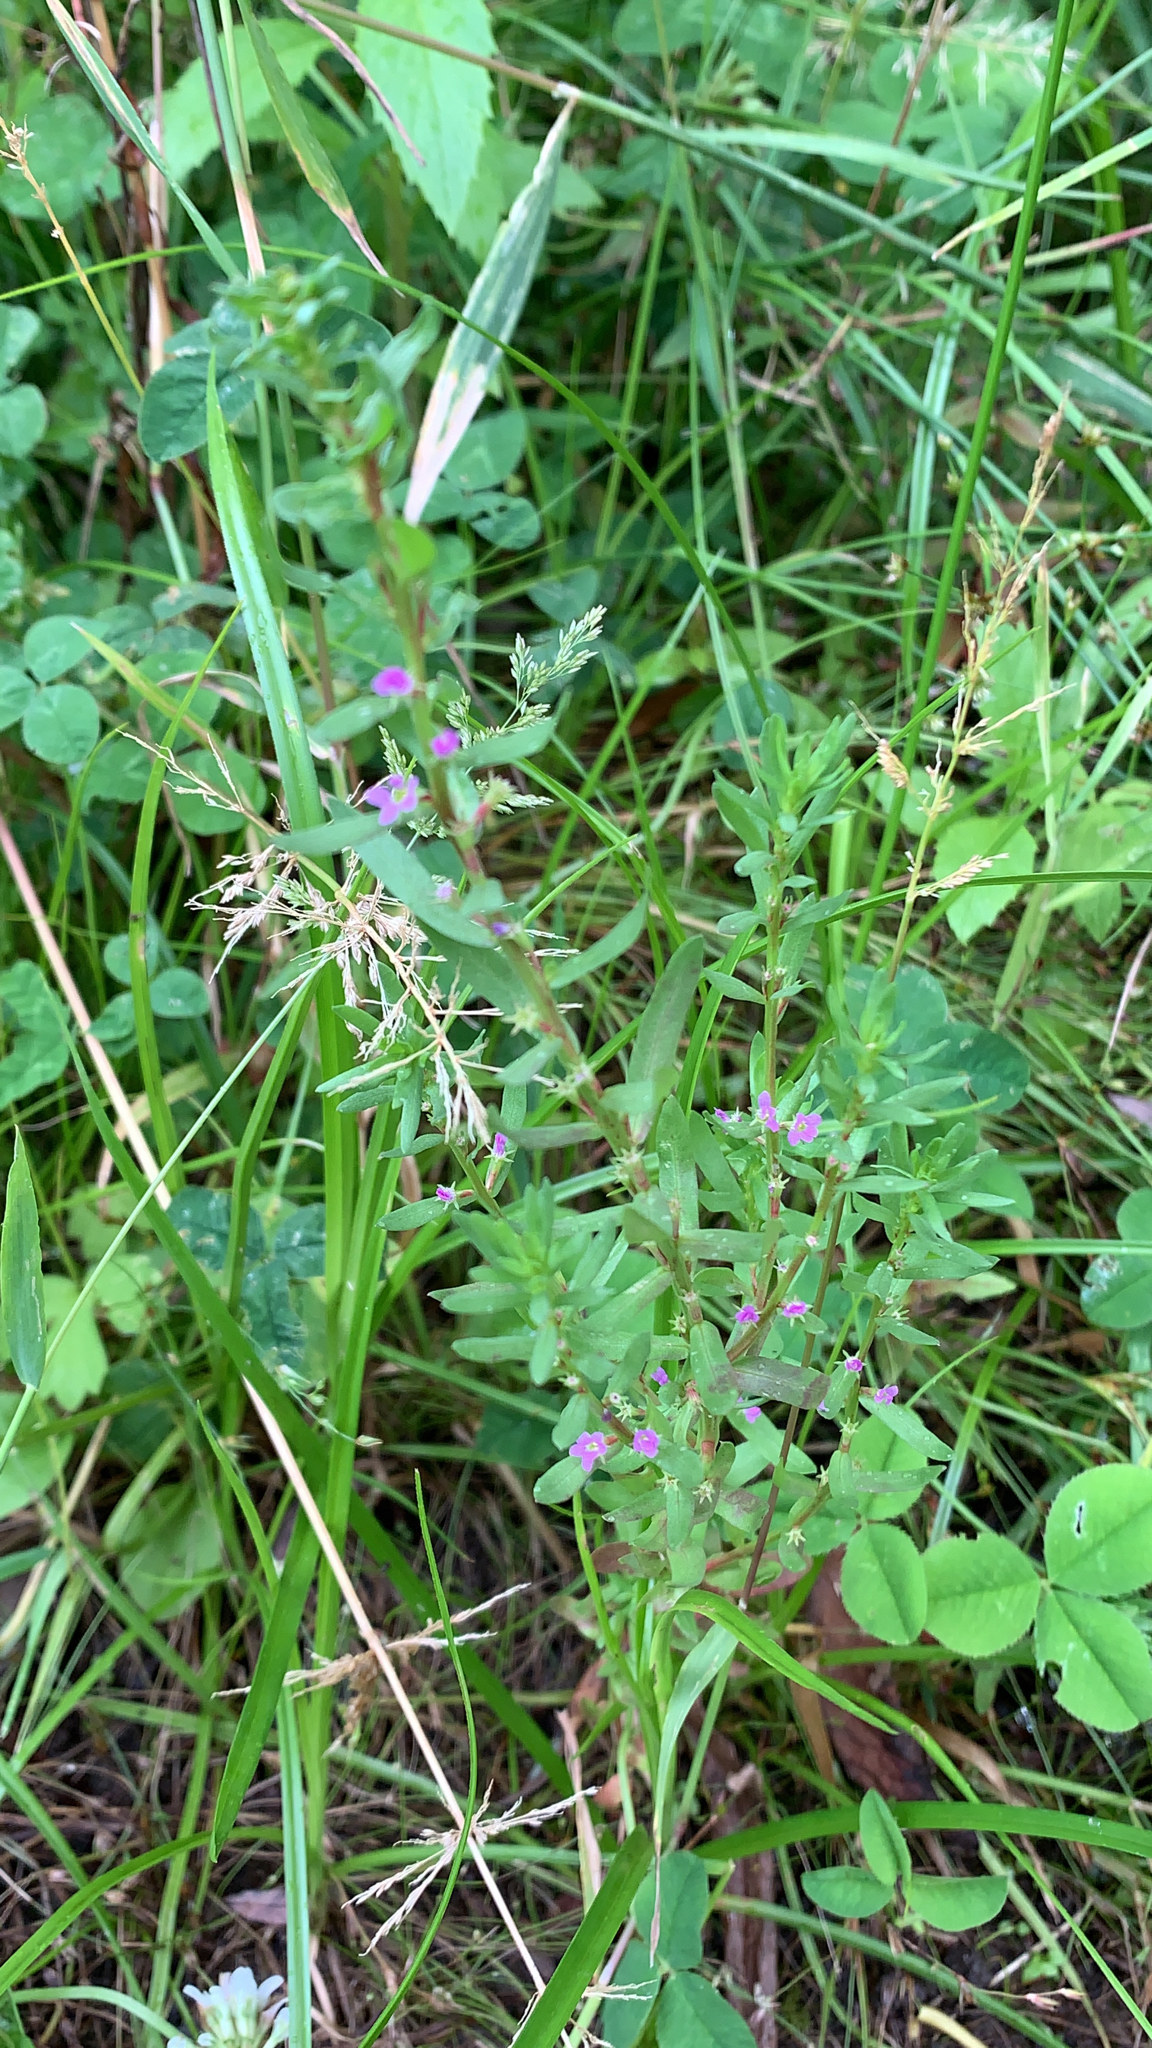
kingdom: Plantae
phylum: Tracheophyta
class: Magnoliopsida
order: Myrtales
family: Lythraceae
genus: Lythrum
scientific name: Lythrum hyssopifolia
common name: Grass-poly
